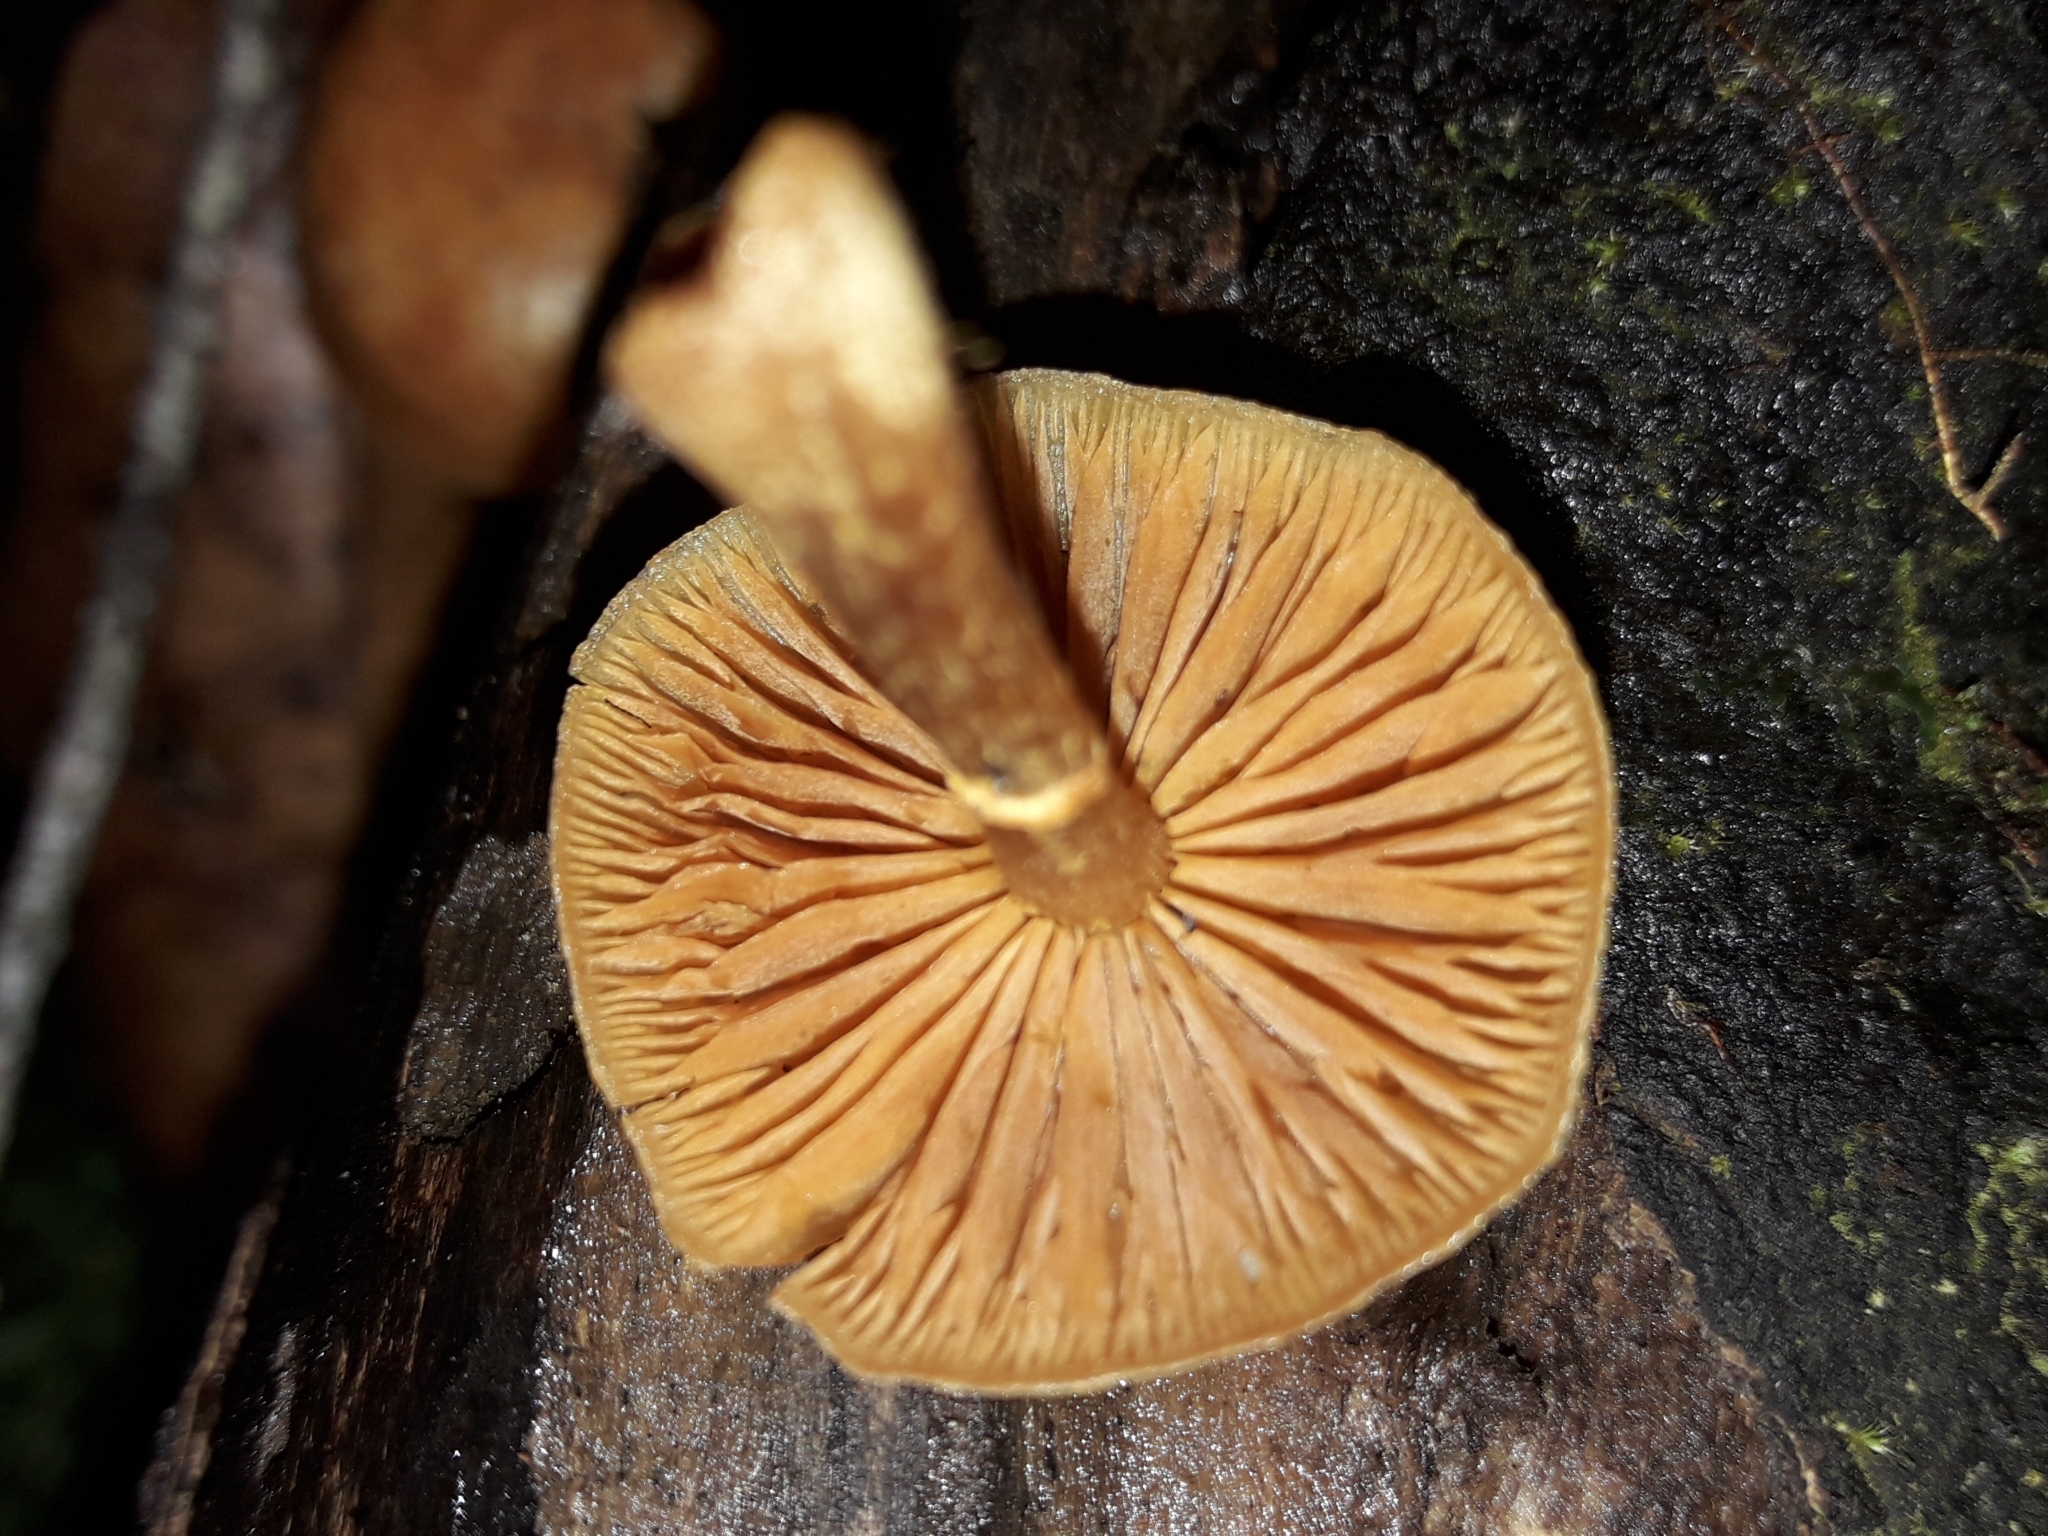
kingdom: Fungi
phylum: Basidiomycota
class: Agaricomycetes
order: Agaricales
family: Hymenogastraceae
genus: Galerina
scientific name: Galerina patagonica
